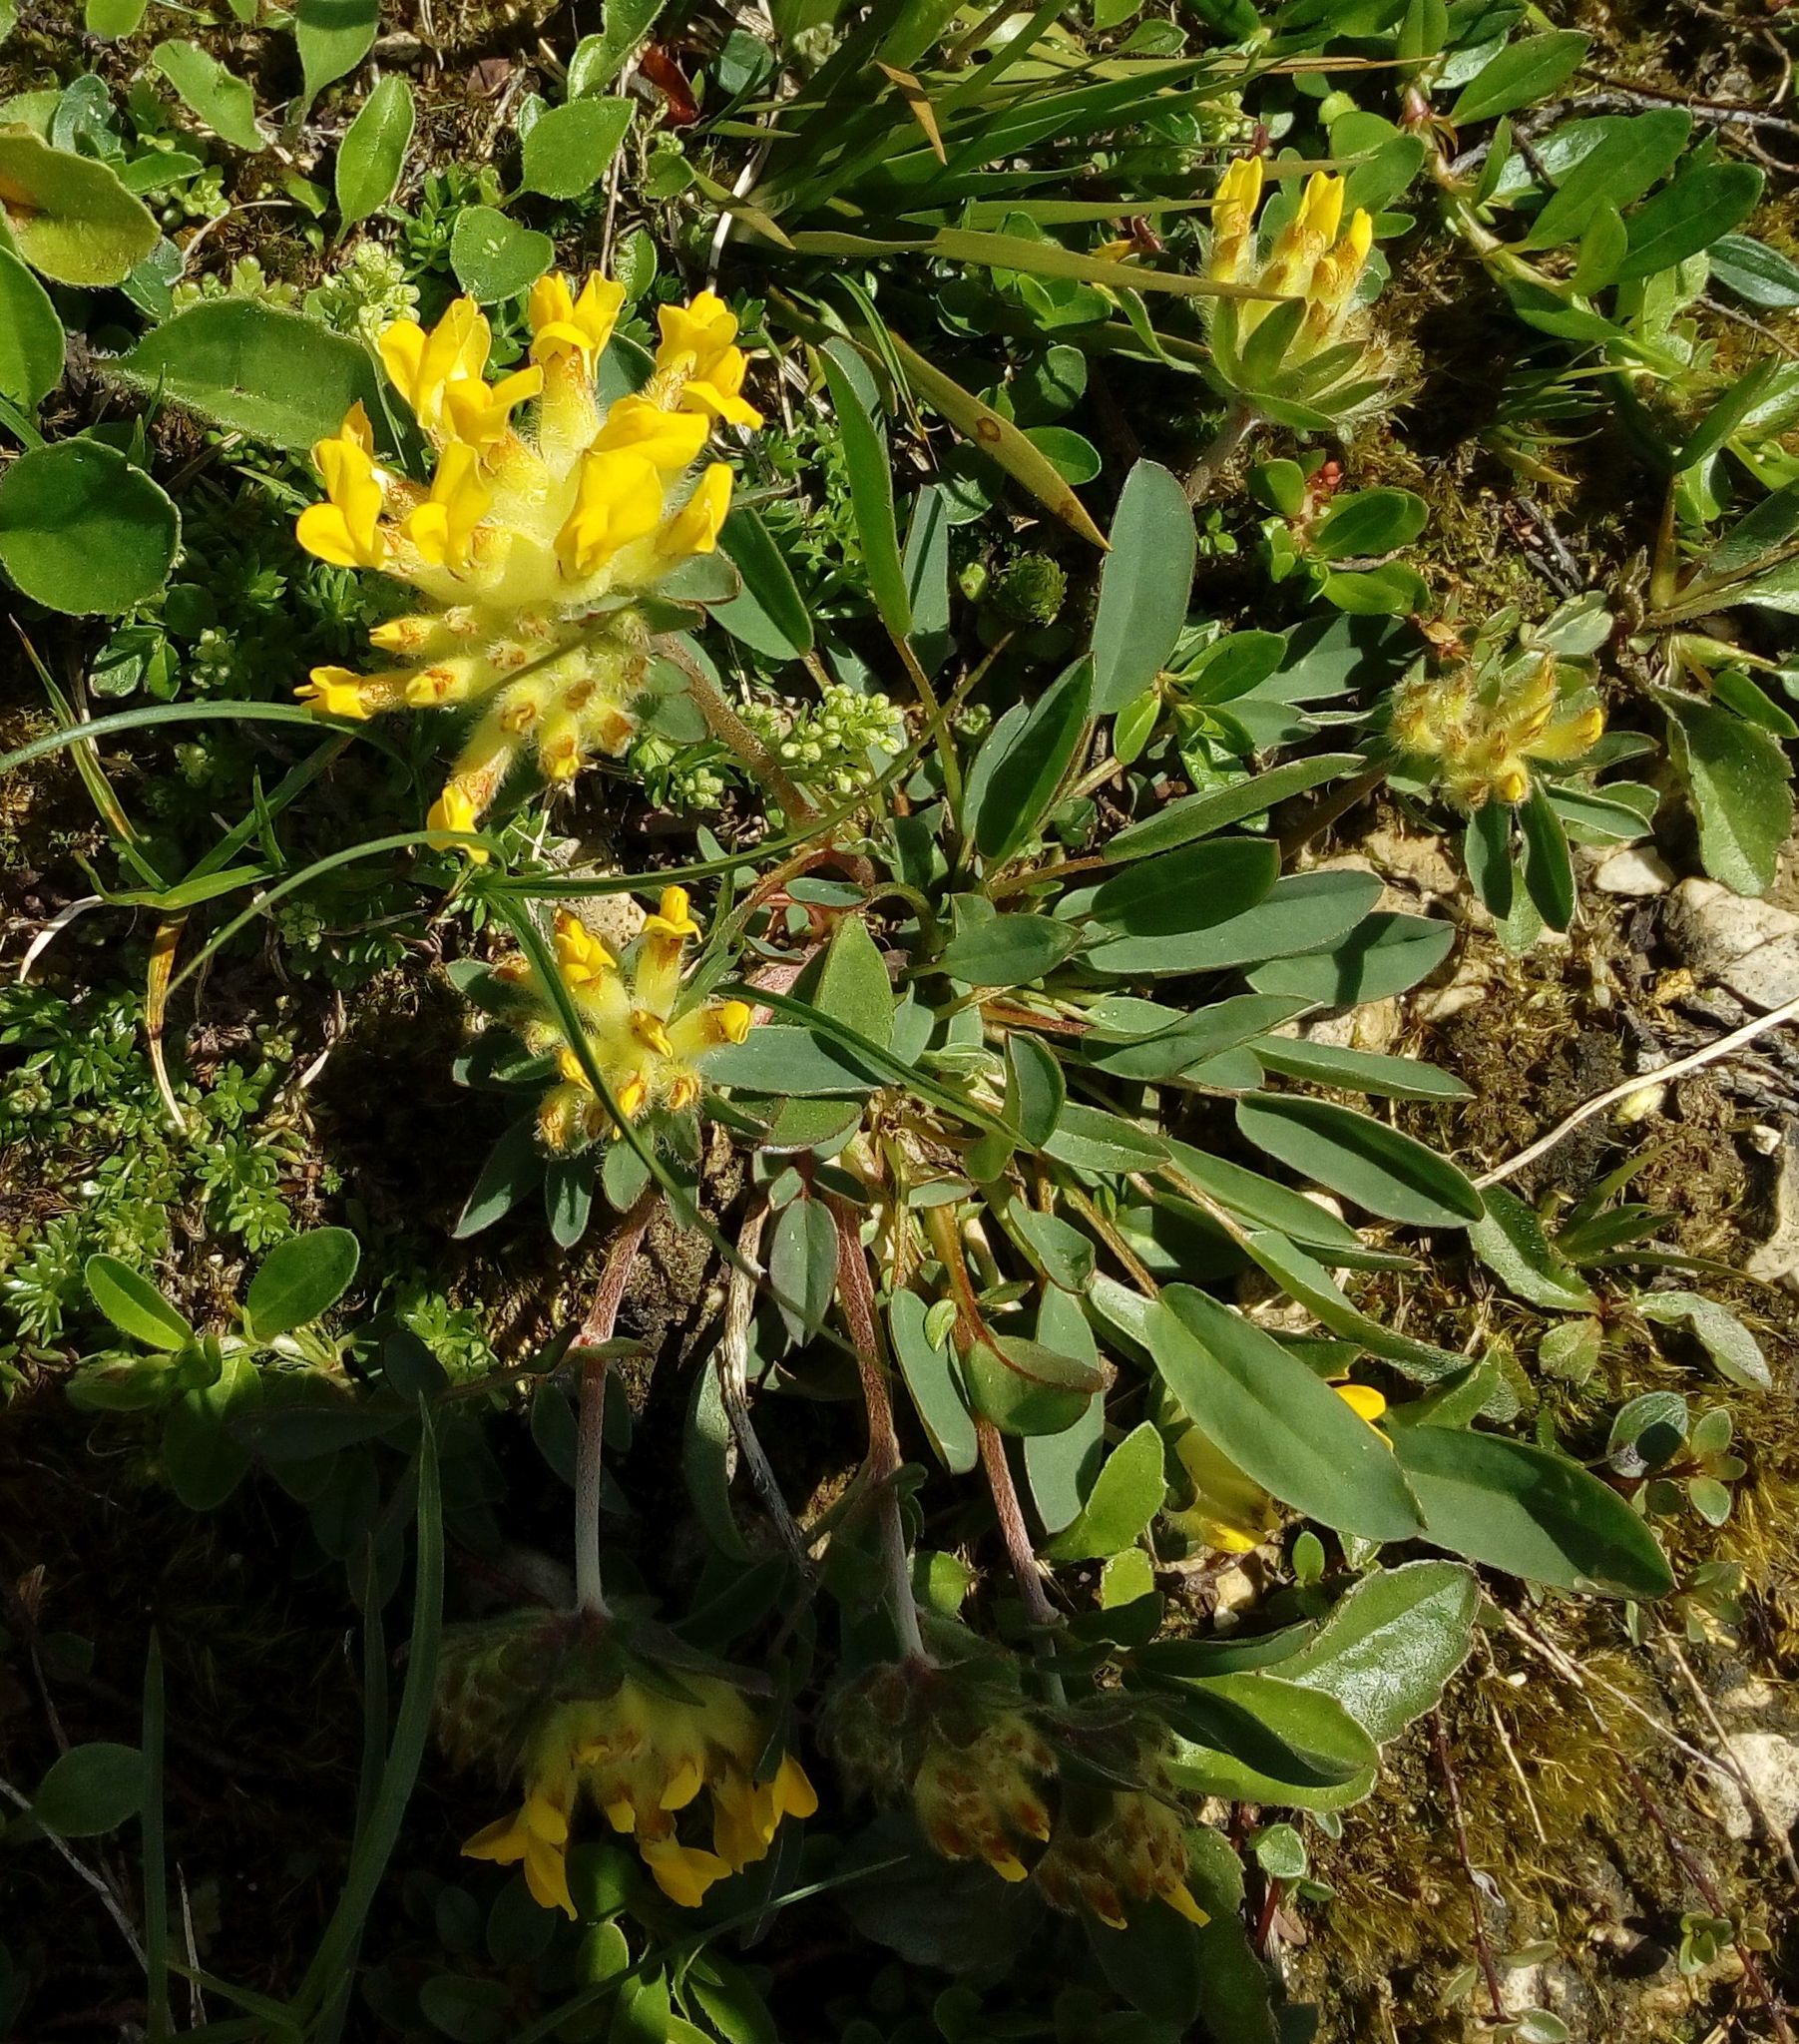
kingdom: Plantae
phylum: Tracheophyta
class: Magnoliopsida
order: Fabales
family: Fabaceae
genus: Anthyllis
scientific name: Anthyllis vulneraria
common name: Kidney vetch
